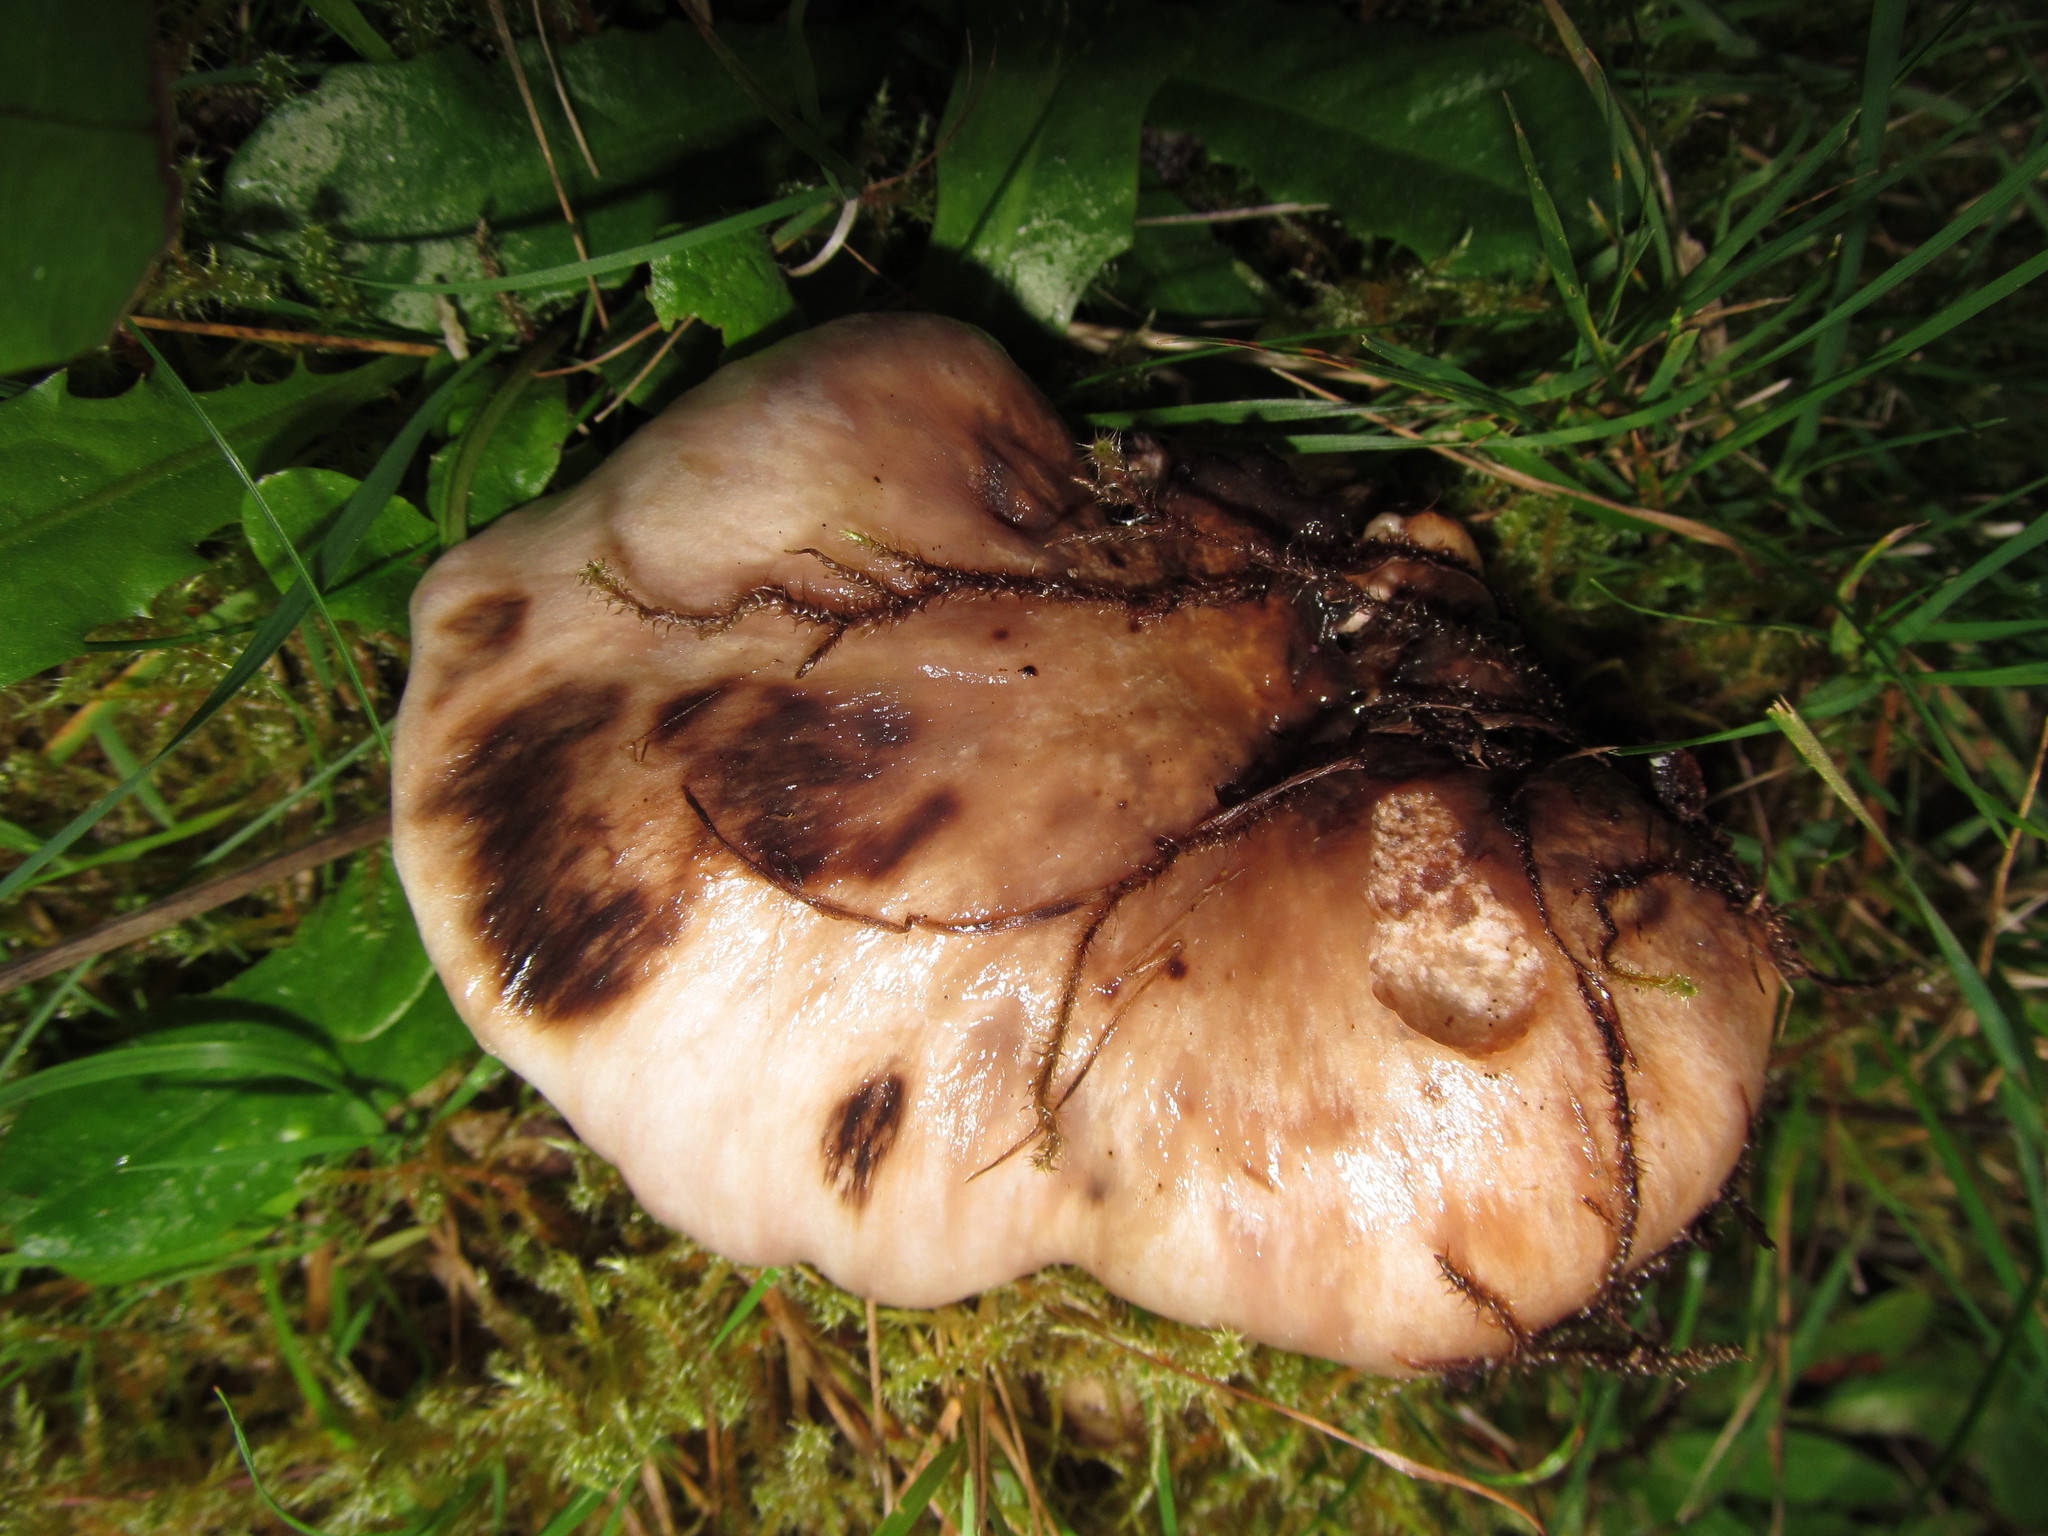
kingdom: Fungi
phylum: Basidiomycota
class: Agaricomycetes
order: Boletales
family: Gomphidiaceae
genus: Gomphidius
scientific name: Gomphidius oregonensis
